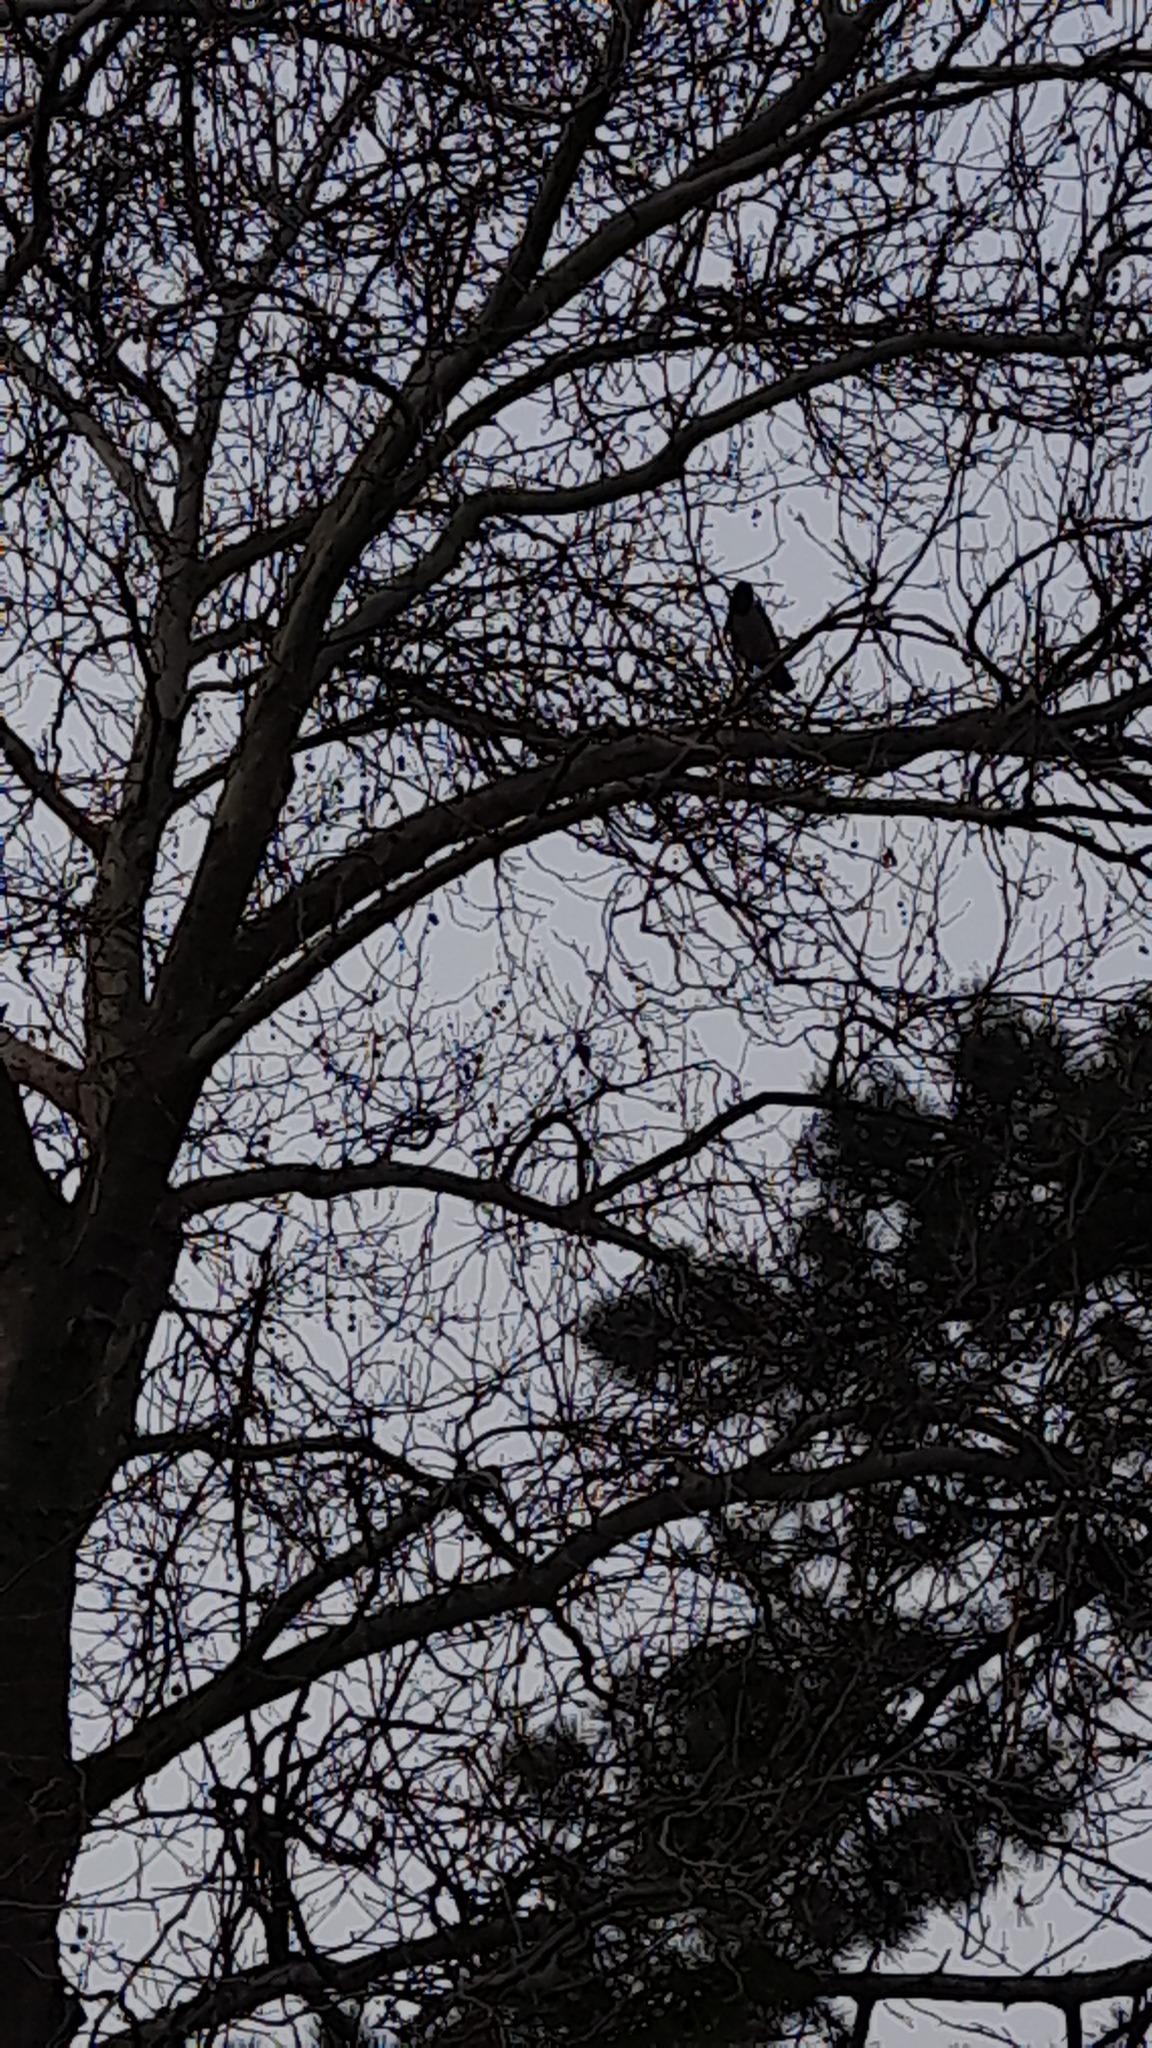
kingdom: Animalia
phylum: Chordata
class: Aves
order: Passeriformes
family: Corvidae
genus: Corvus
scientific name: Corvus cornix
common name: Hooded crow
